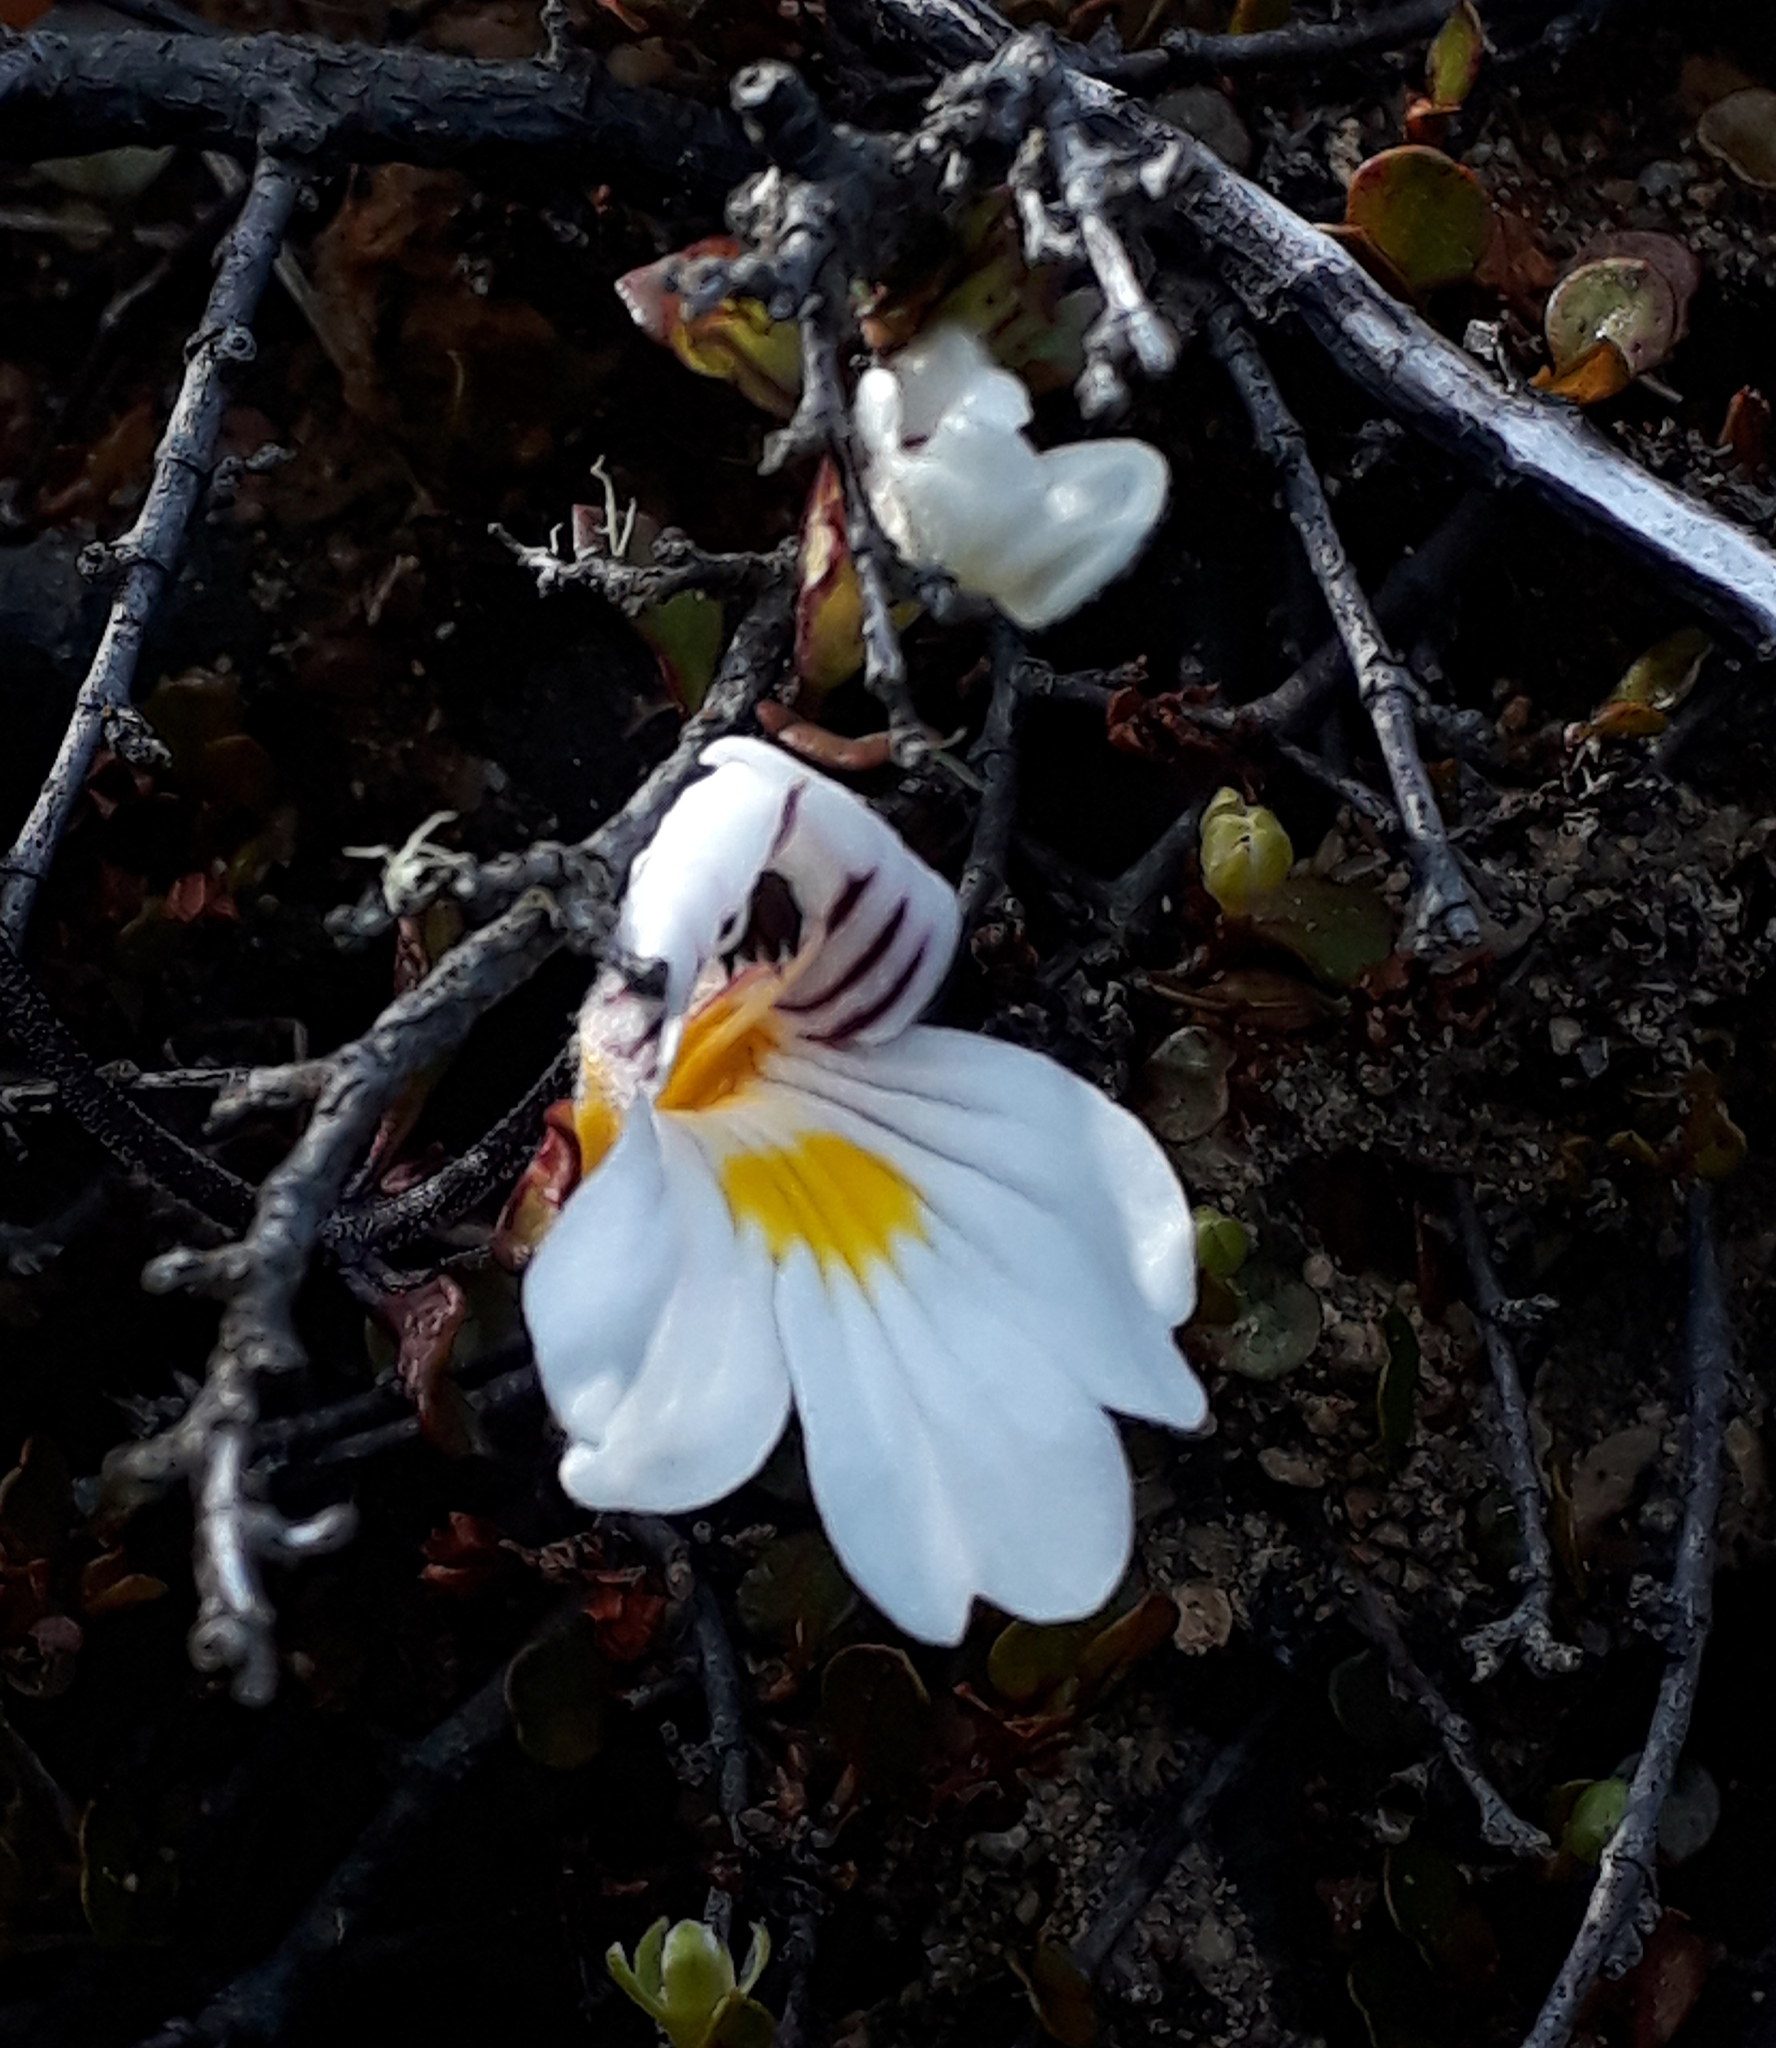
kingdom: Plantae
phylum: Tracheophyta
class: Magnoliopsida
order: Lamiales
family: Orobanchaceae
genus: Euphrasia
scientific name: Euphrasia cuneata
